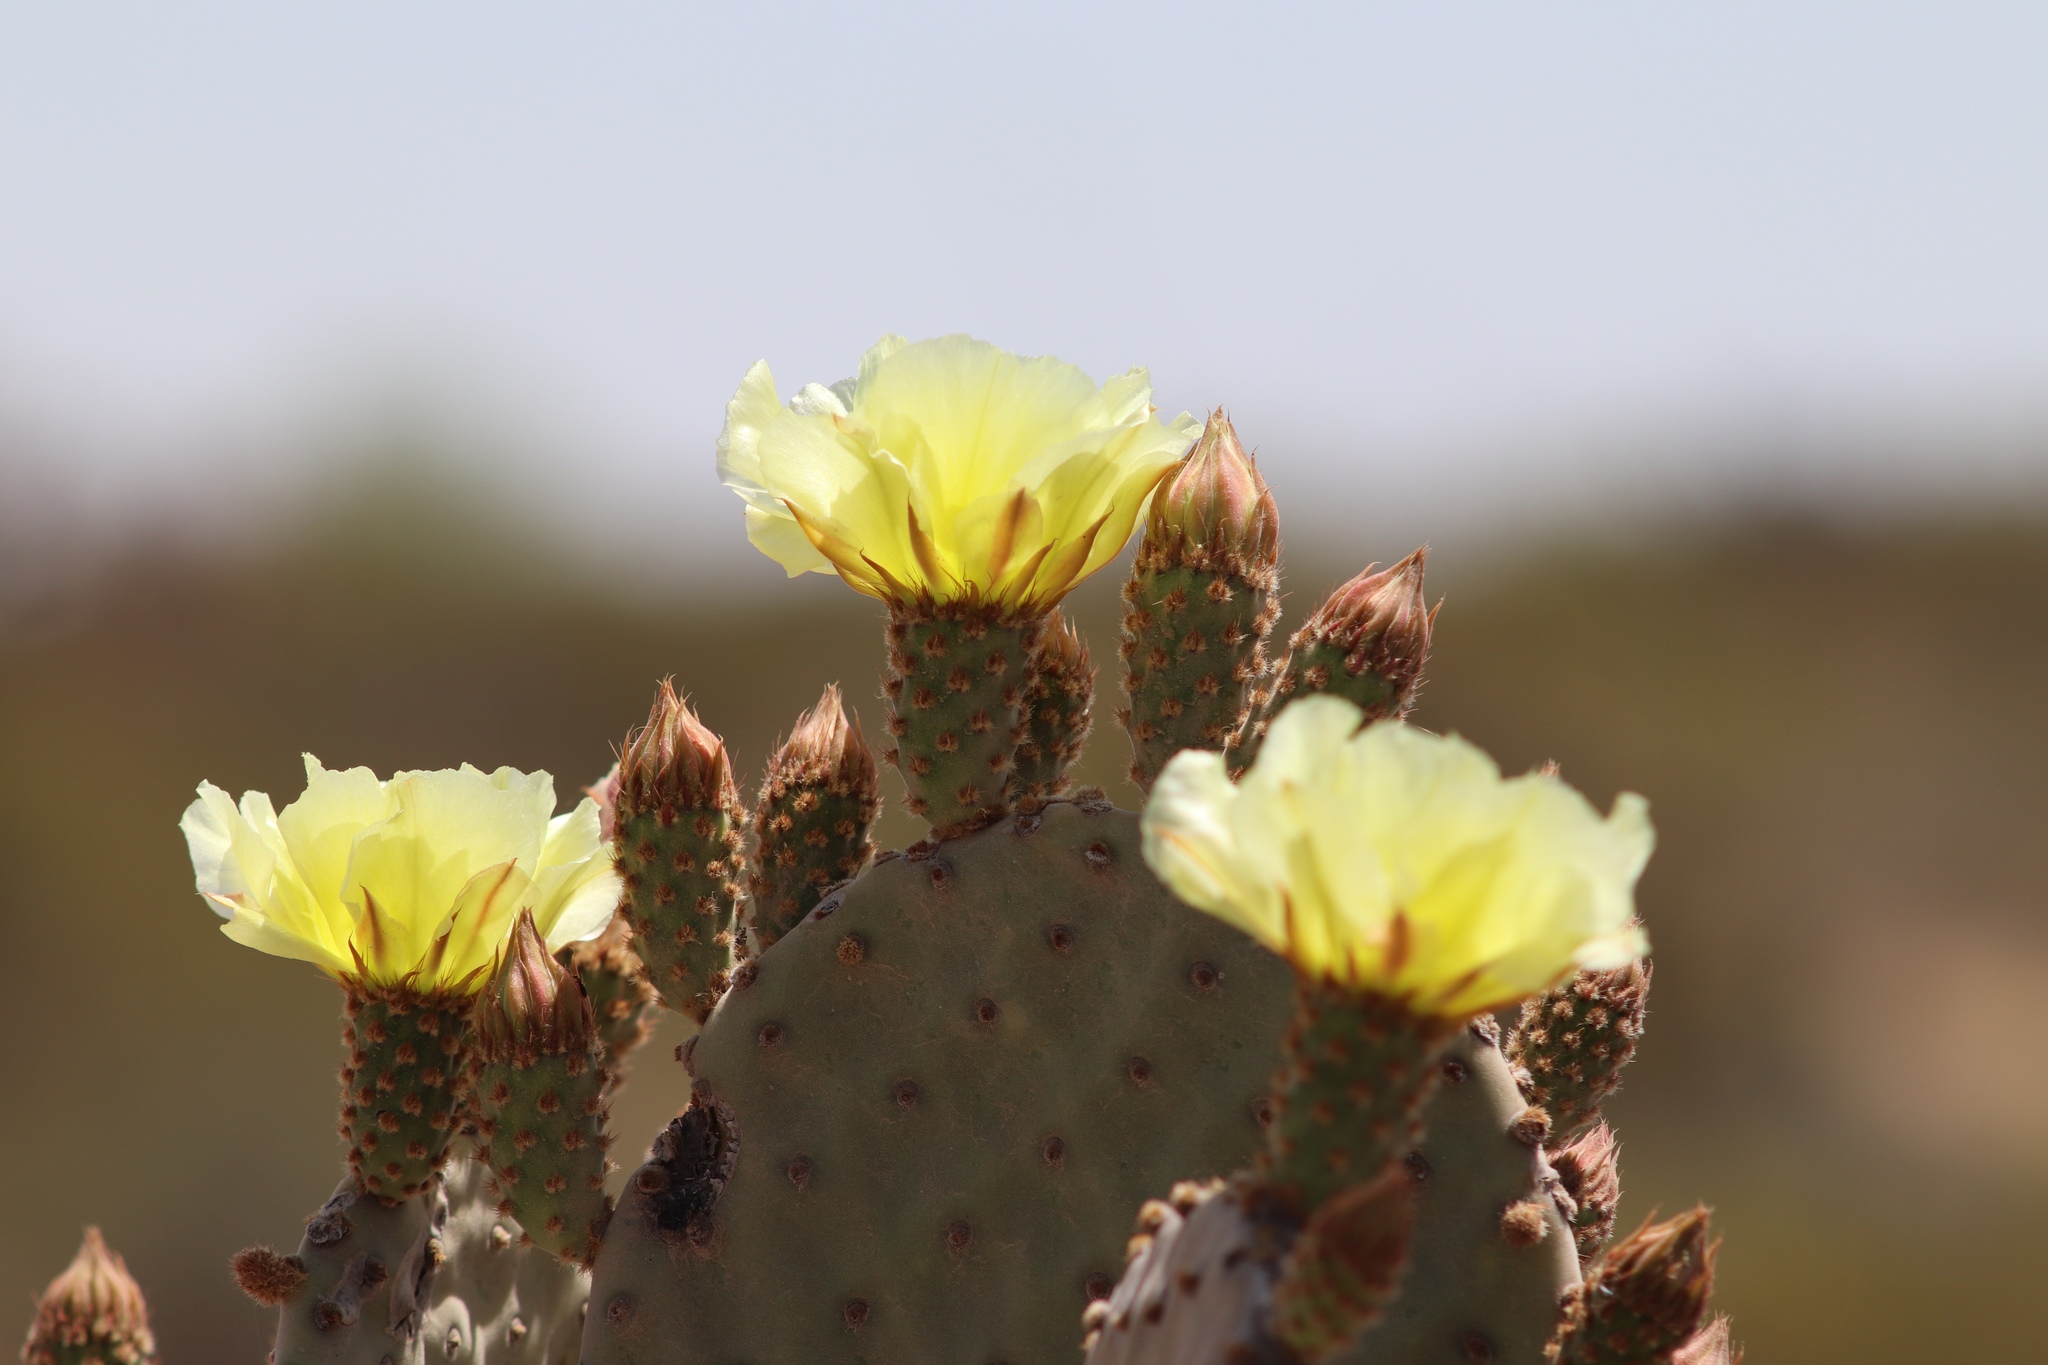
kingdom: Plantae
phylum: Tracheophyta
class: Magnoliopsida
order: Caryophyllales
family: Cactaceae
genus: Opuntia
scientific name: Opuntia rufida
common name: Blind pricklypear
